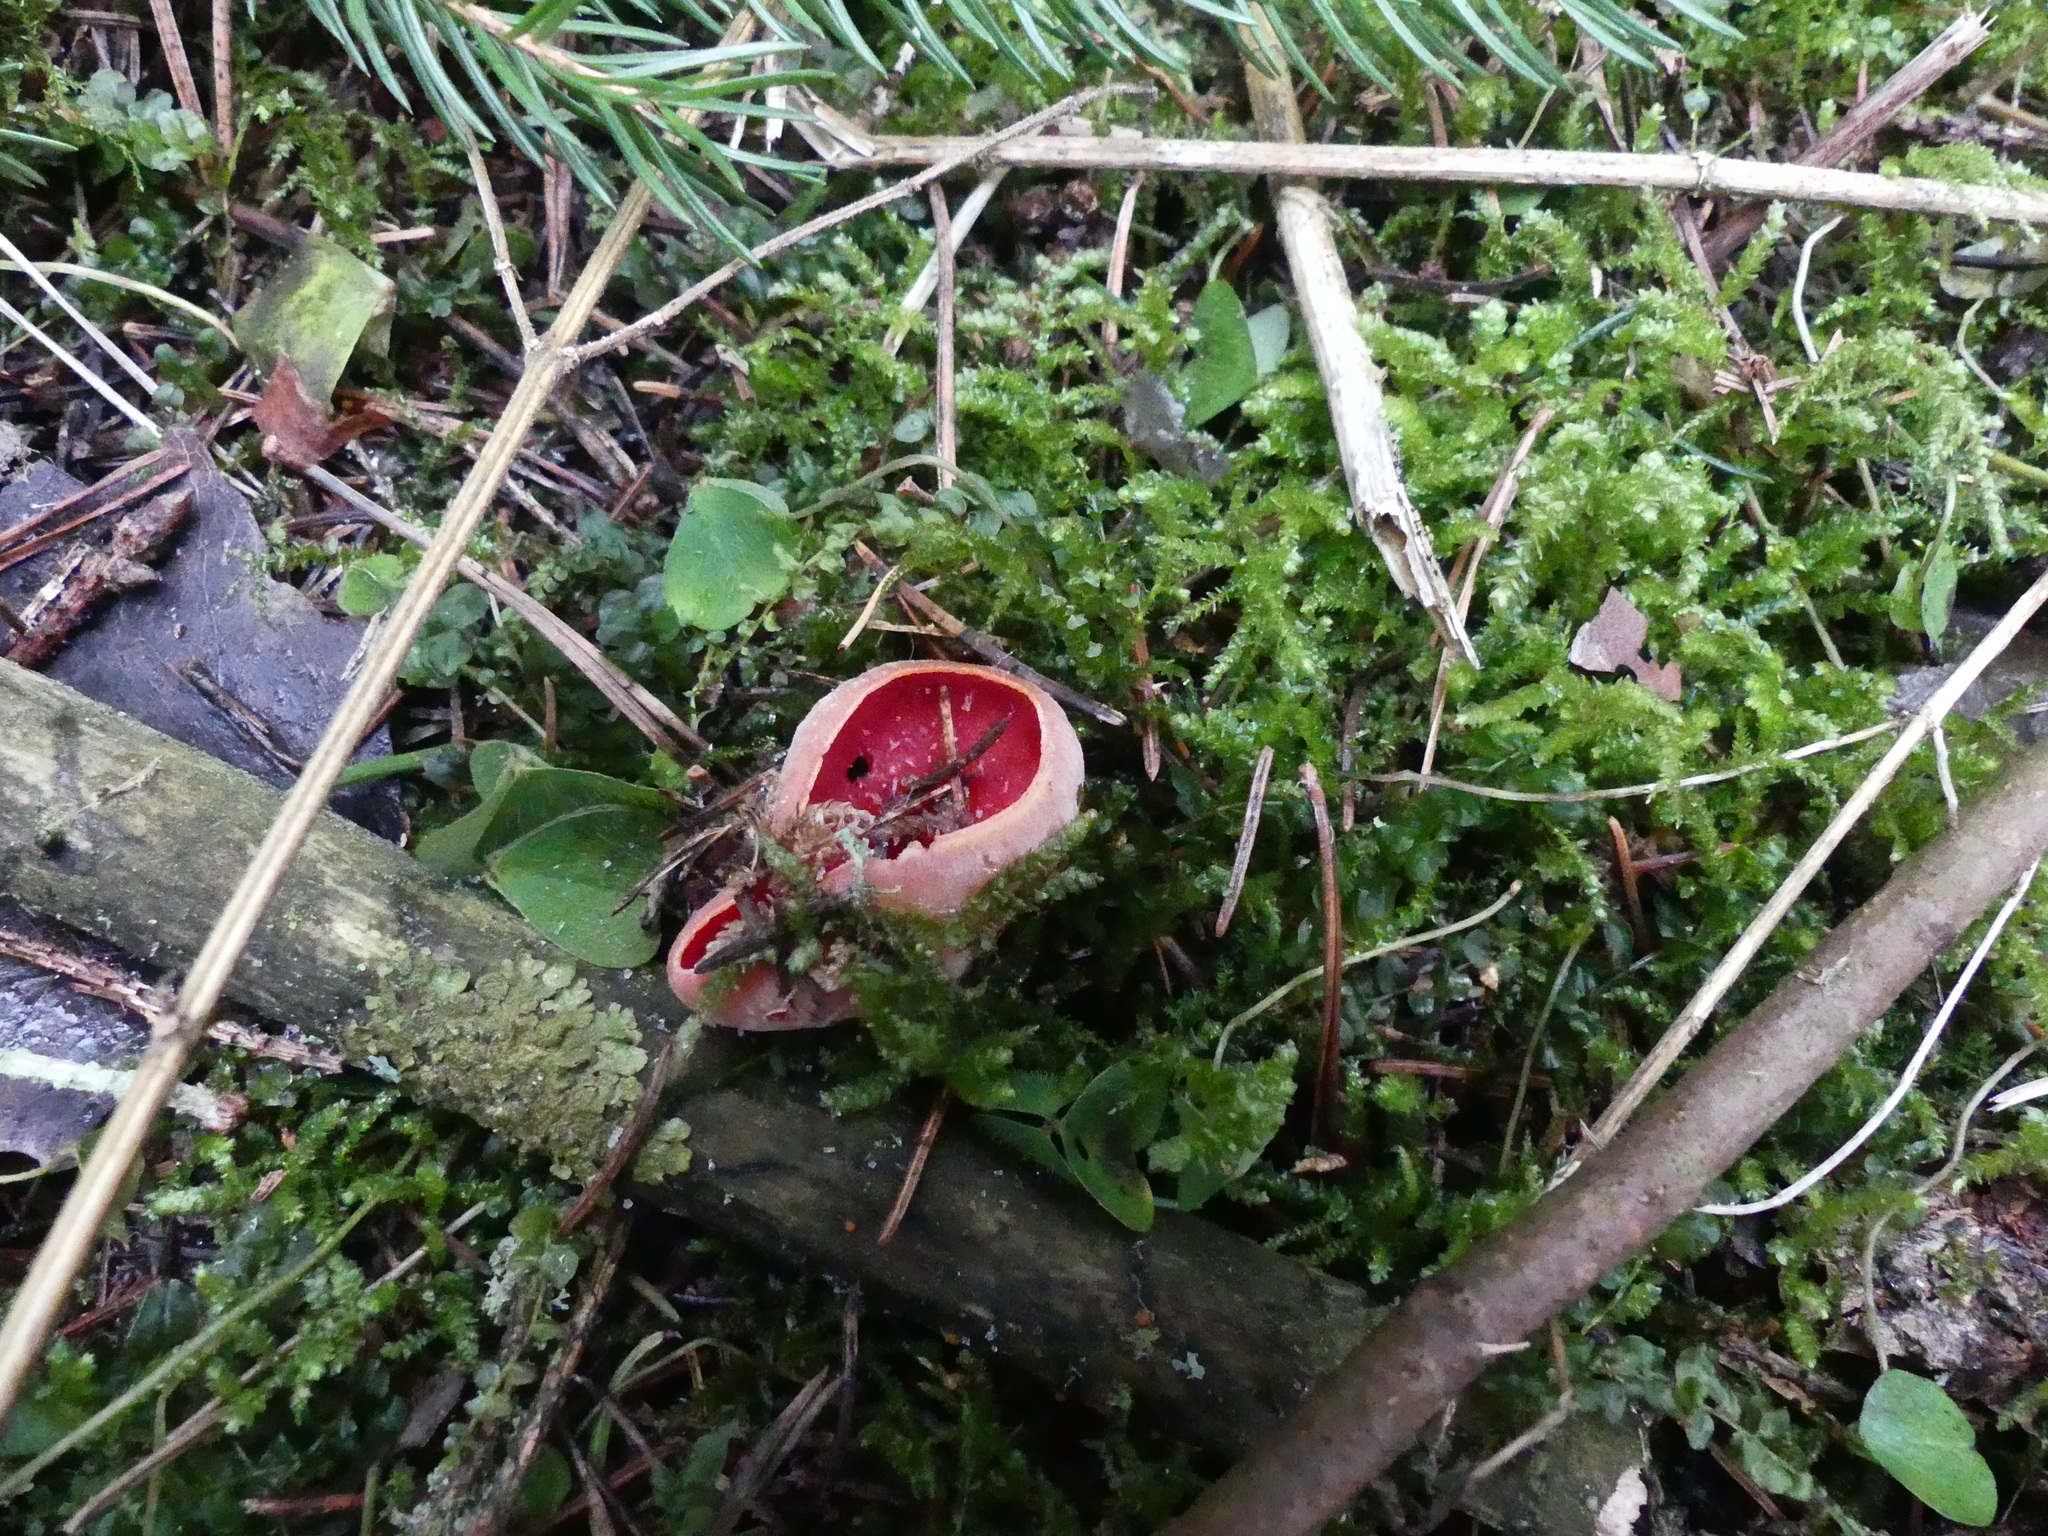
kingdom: Fungi
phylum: Ascomycota
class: Pezizomycetes
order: Pezizales
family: Sarcoscyphaceae
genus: Sarcoscypha
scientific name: Sarcoscypha austriaca
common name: Scarlet elfcup
